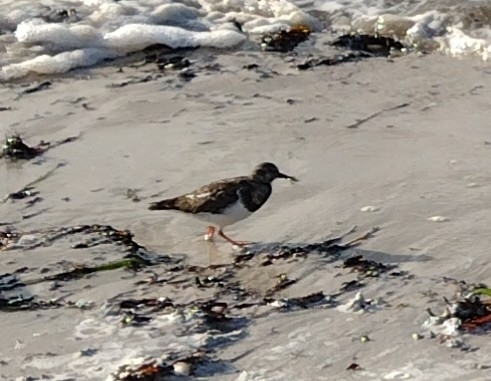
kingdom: Animalia
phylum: Chordata
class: Aves
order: Charadriiformes
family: Scolopacidae
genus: Arenaria
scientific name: Arenaria interpres
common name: Ruddy turnstone
